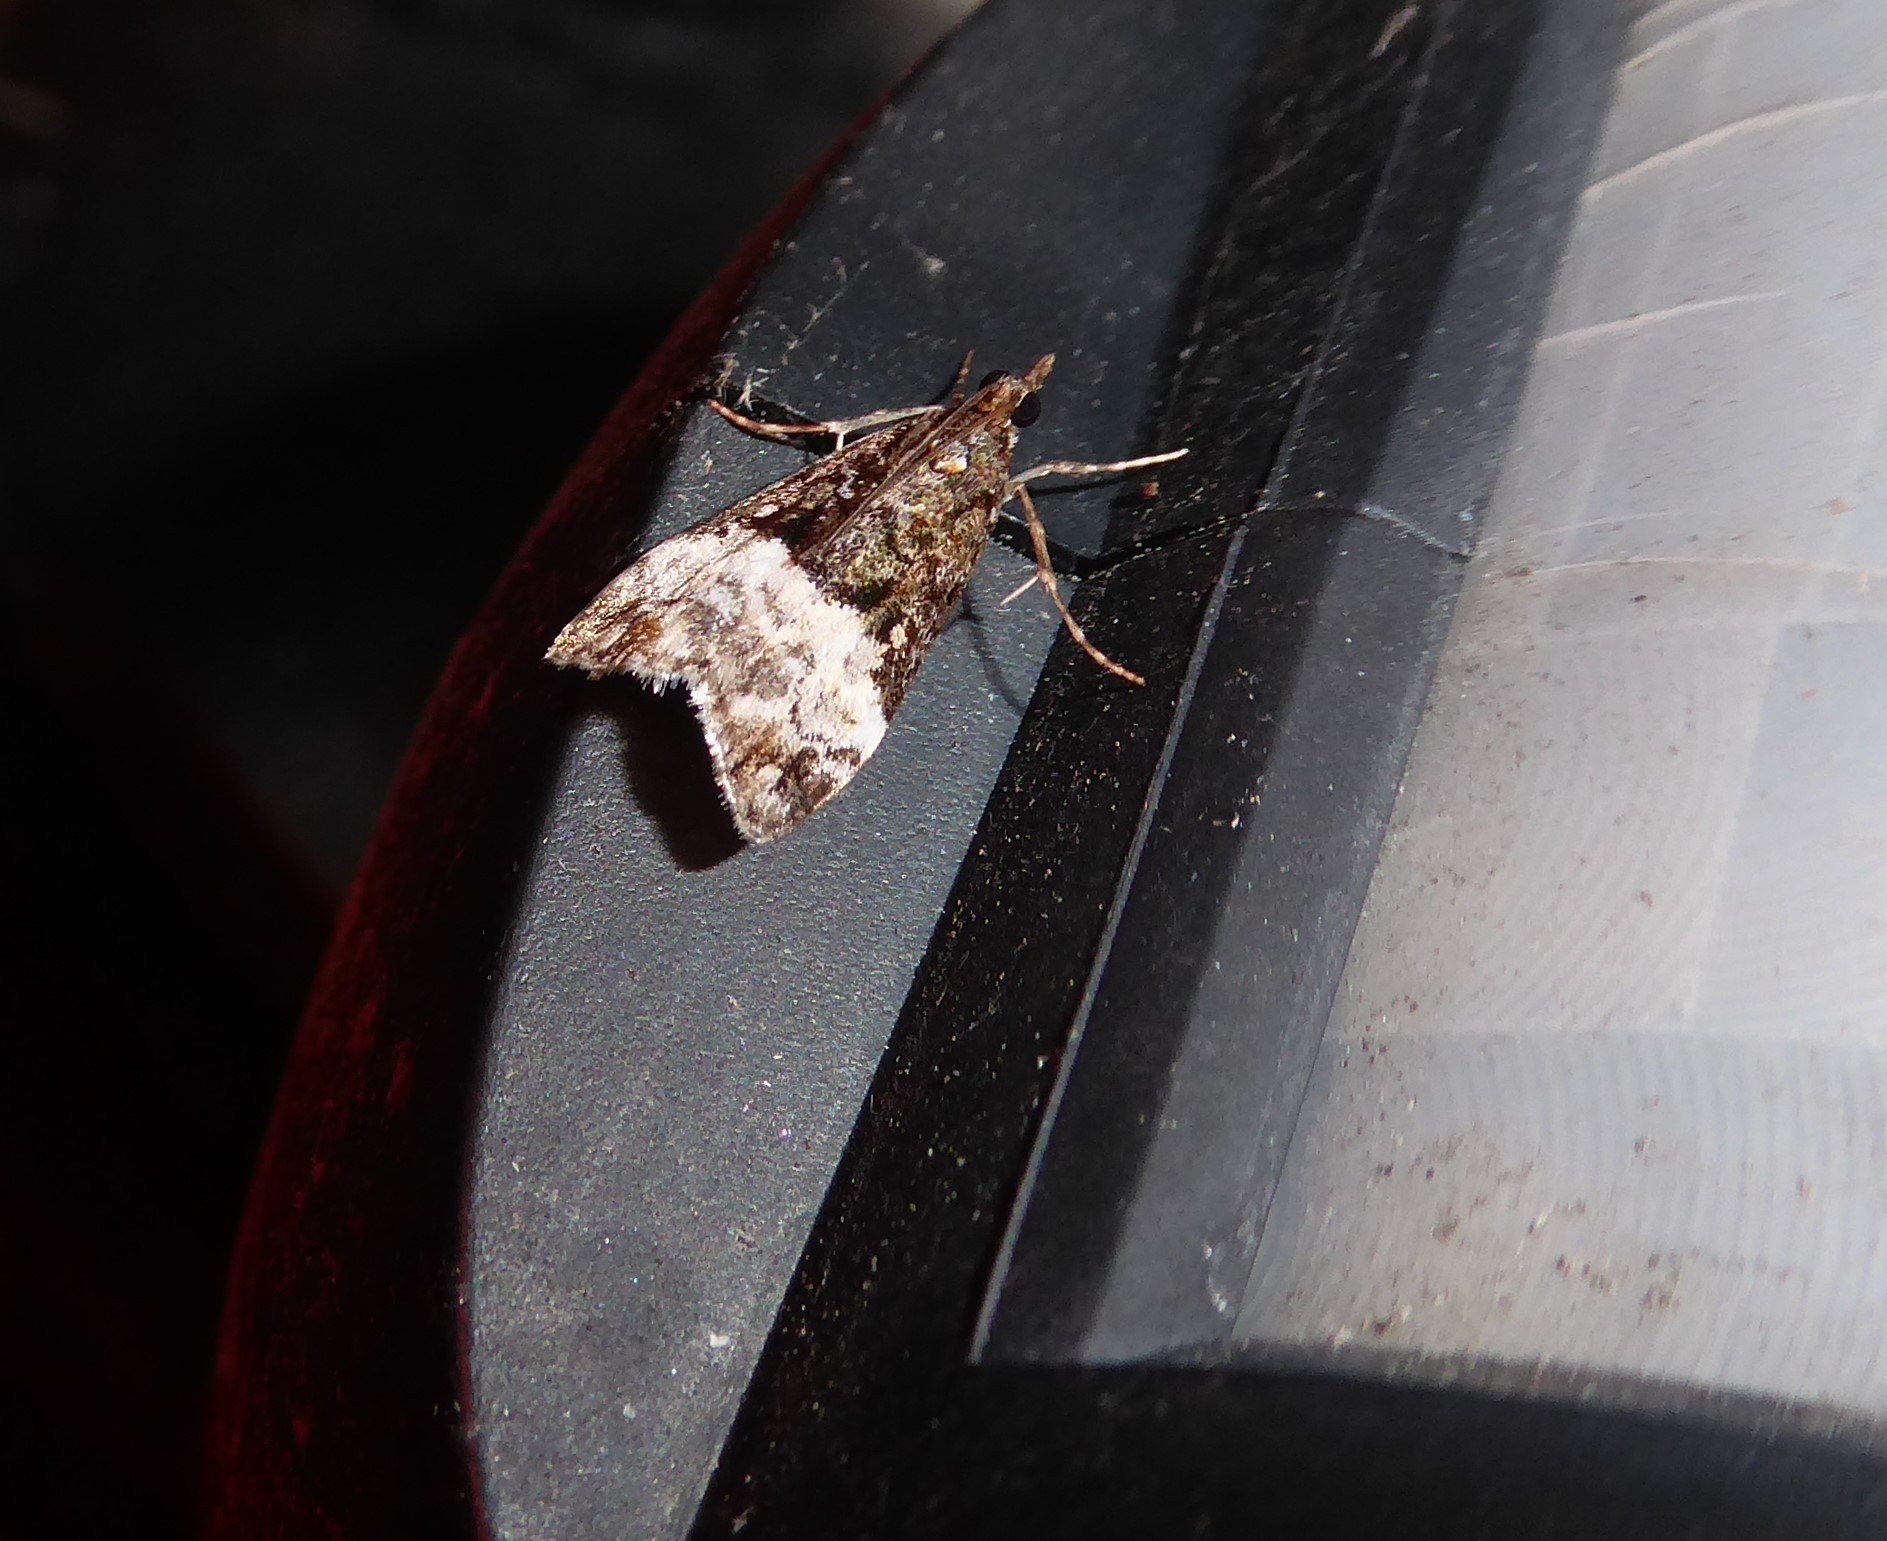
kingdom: Animalia
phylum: Arthropoda
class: Insecta
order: Lepidoptera
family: Crambidae
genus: Scoparia
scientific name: Scoparia minusculalis
